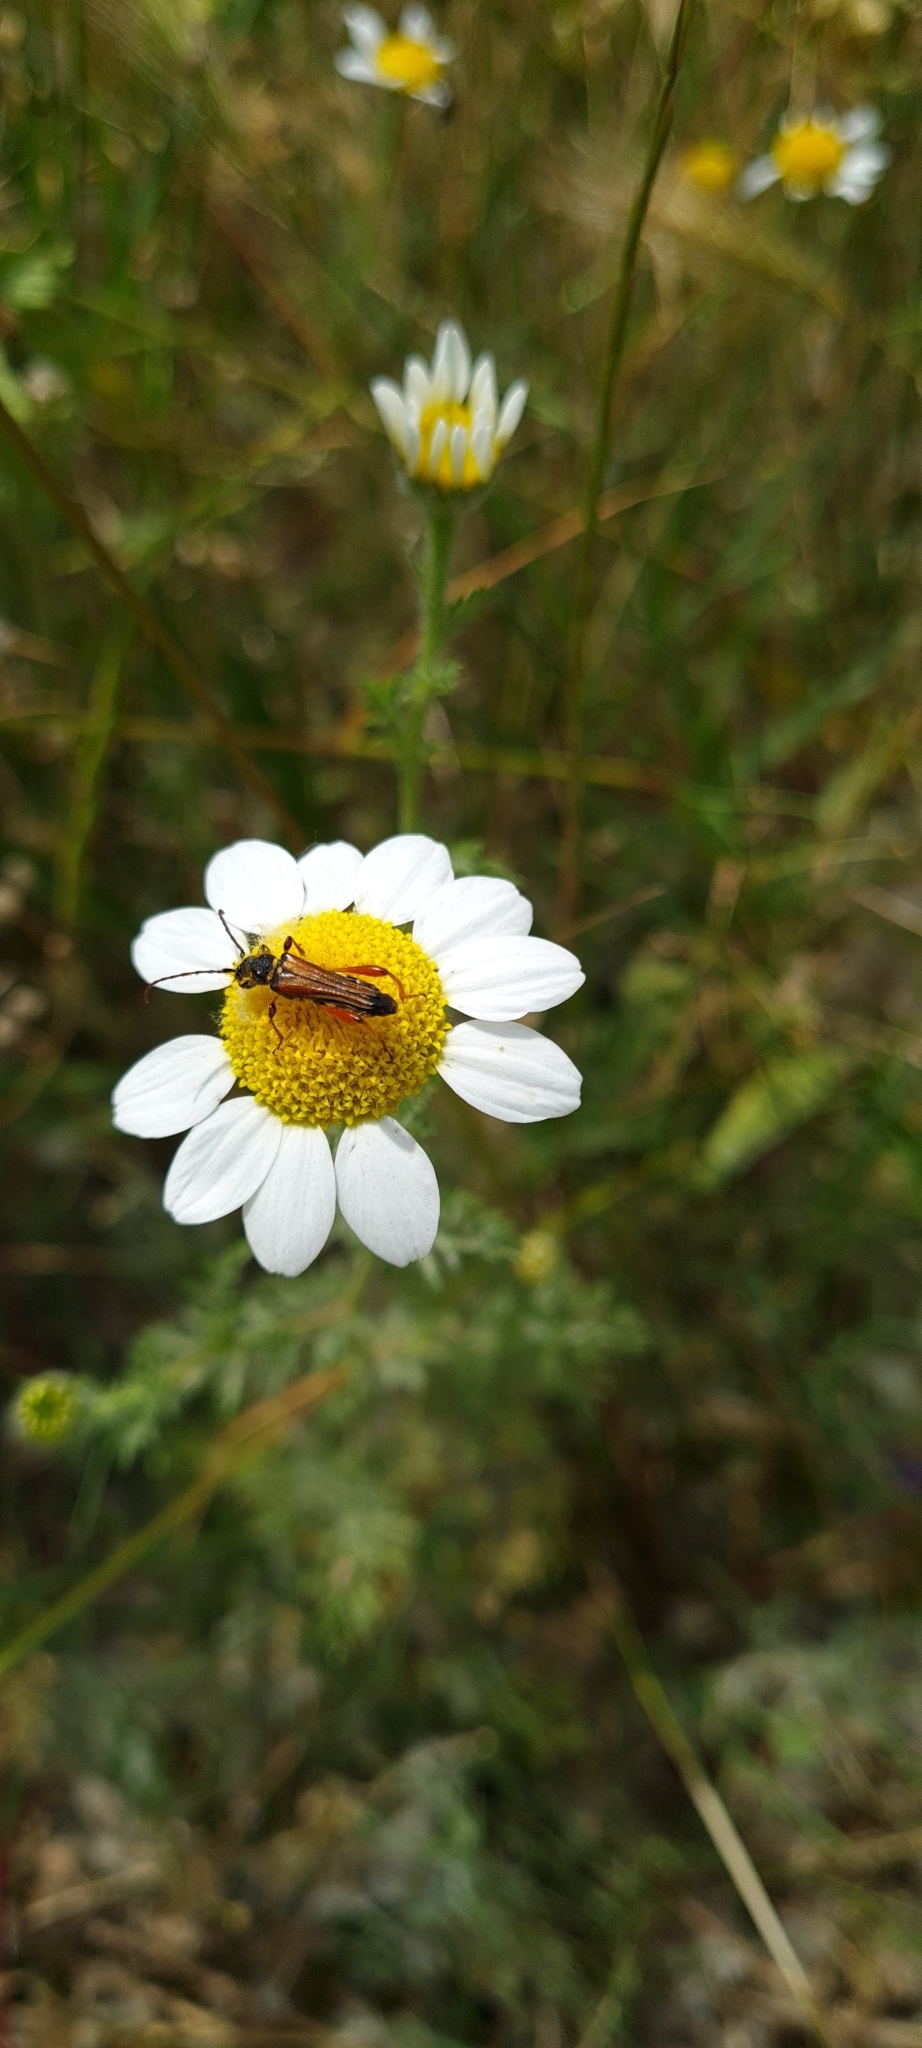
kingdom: Animalia
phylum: Arthropoda
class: Insecta
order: Coleoptera
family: Cerambycidae
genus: Stenopterus
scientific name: Stenopterus rufus
